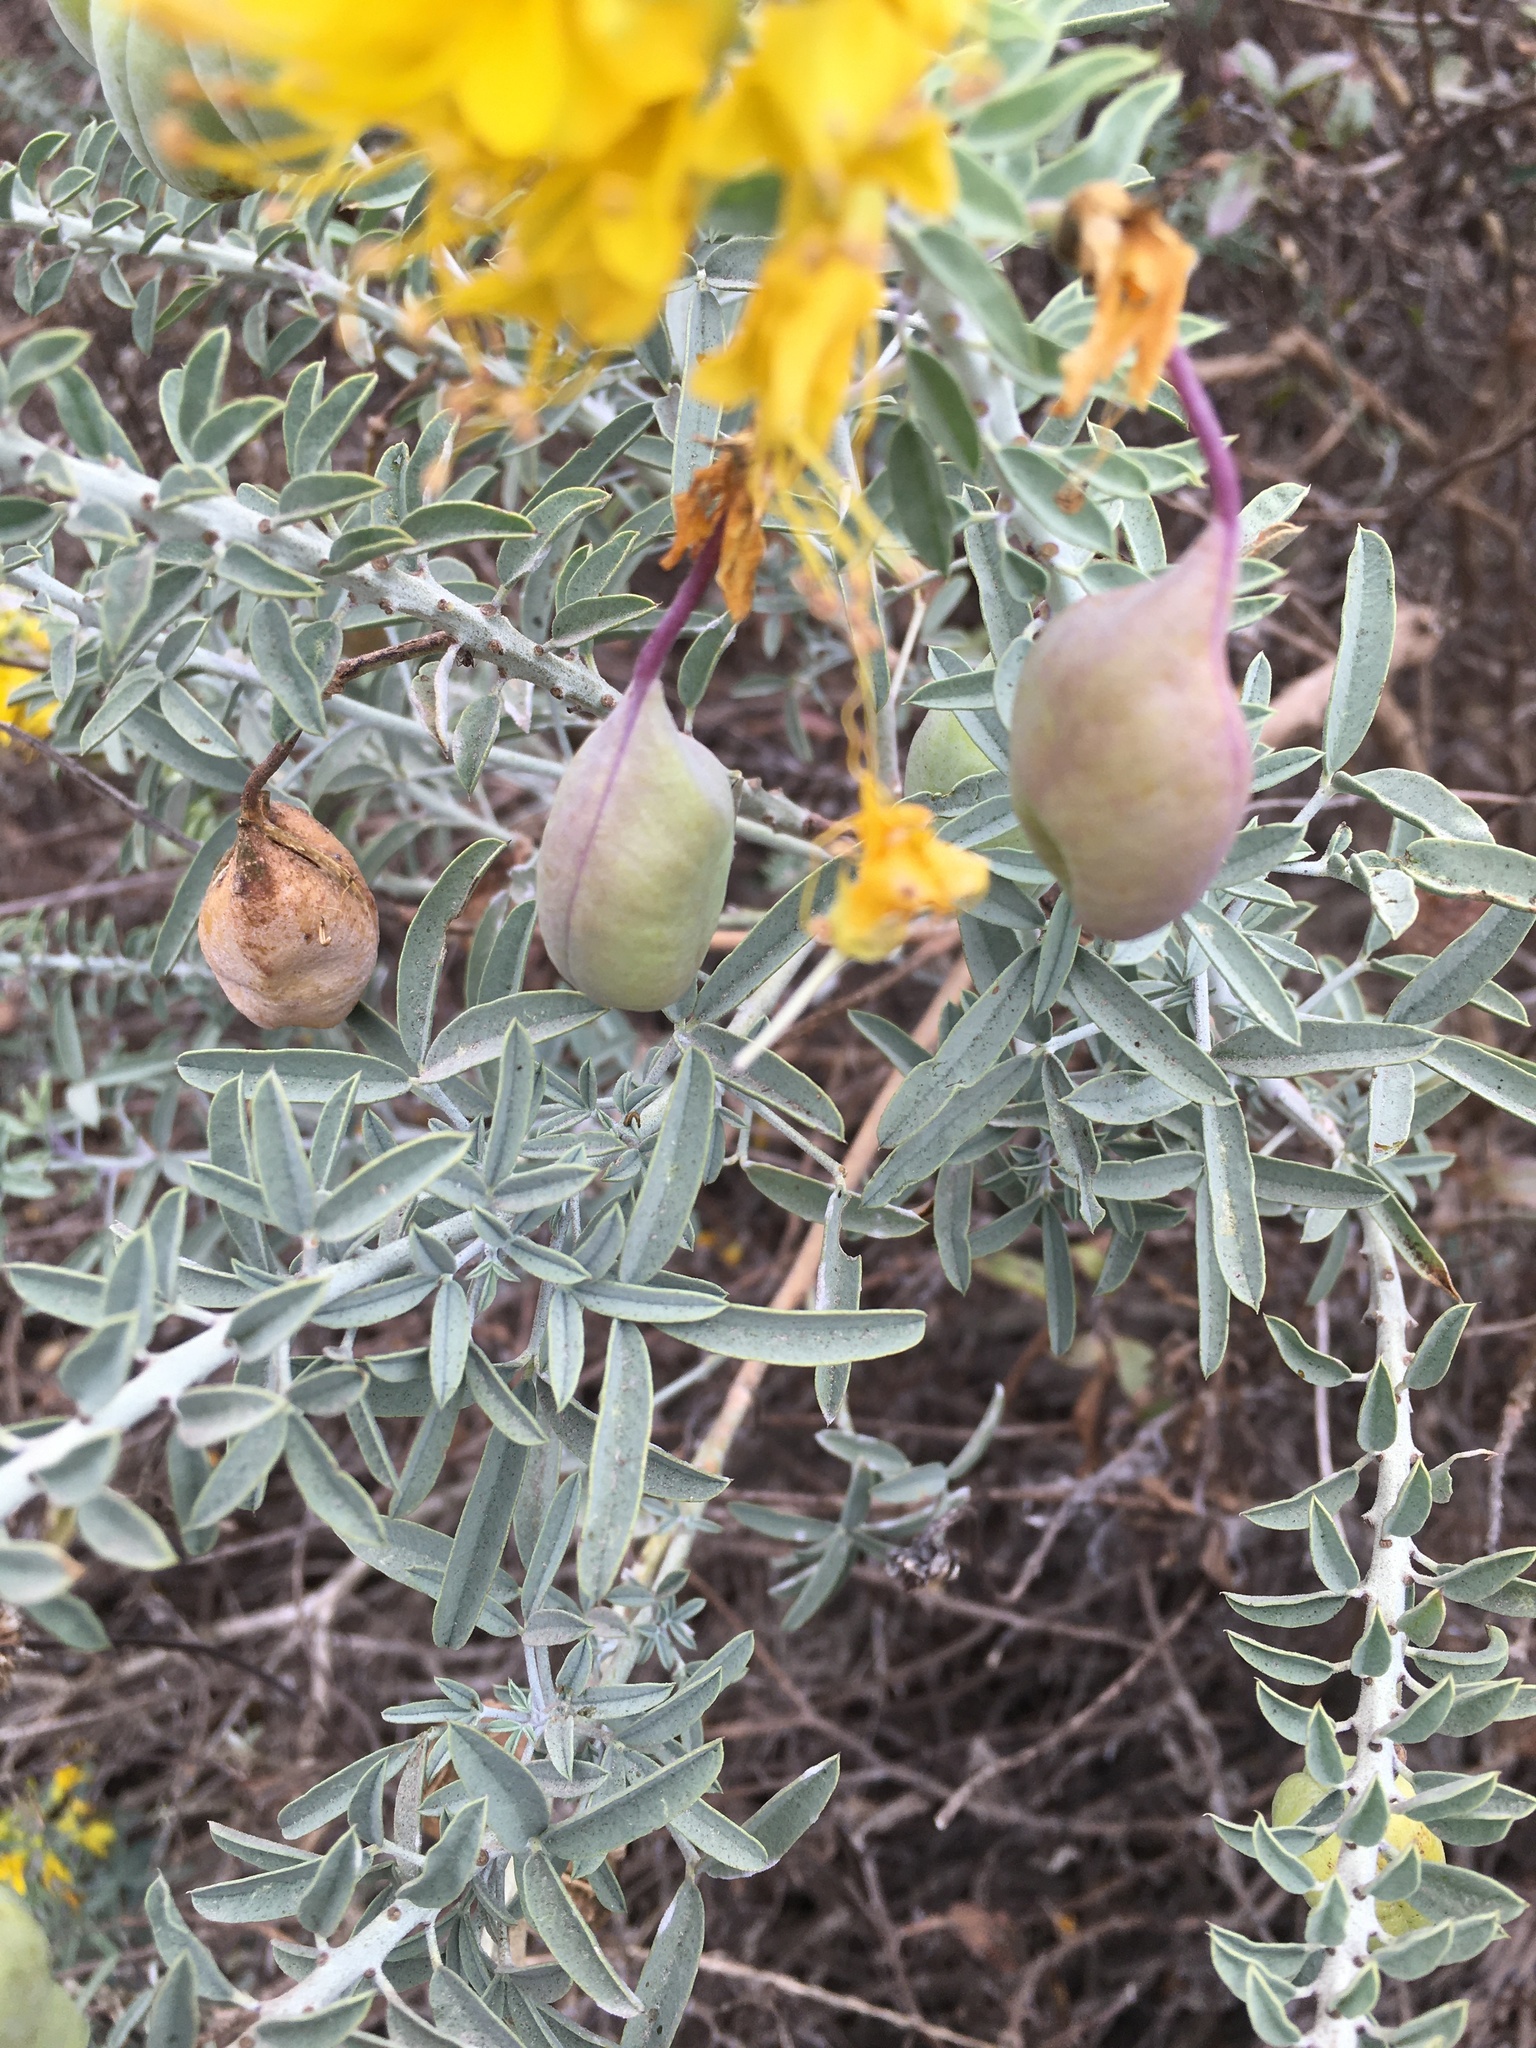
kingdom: Plantae
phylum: Tracheophyta
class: Magnoliopsida
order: Brassicales
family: Cleomaceae
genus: Cleomella
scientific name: Cleomella arborea
